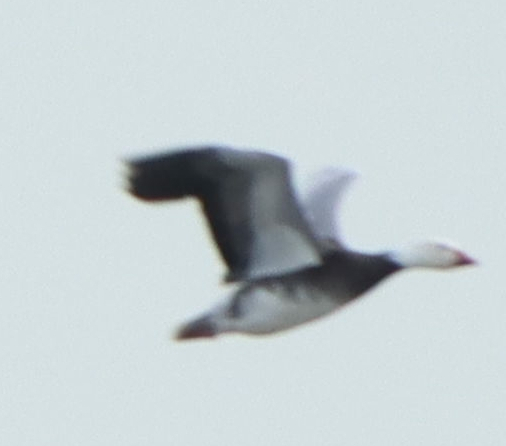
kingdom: Animalia
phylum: Chordata
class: Aves
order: Anseriformes
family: Anatidae
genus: Anser
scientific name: Anser caerulescens
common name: Snow goose
